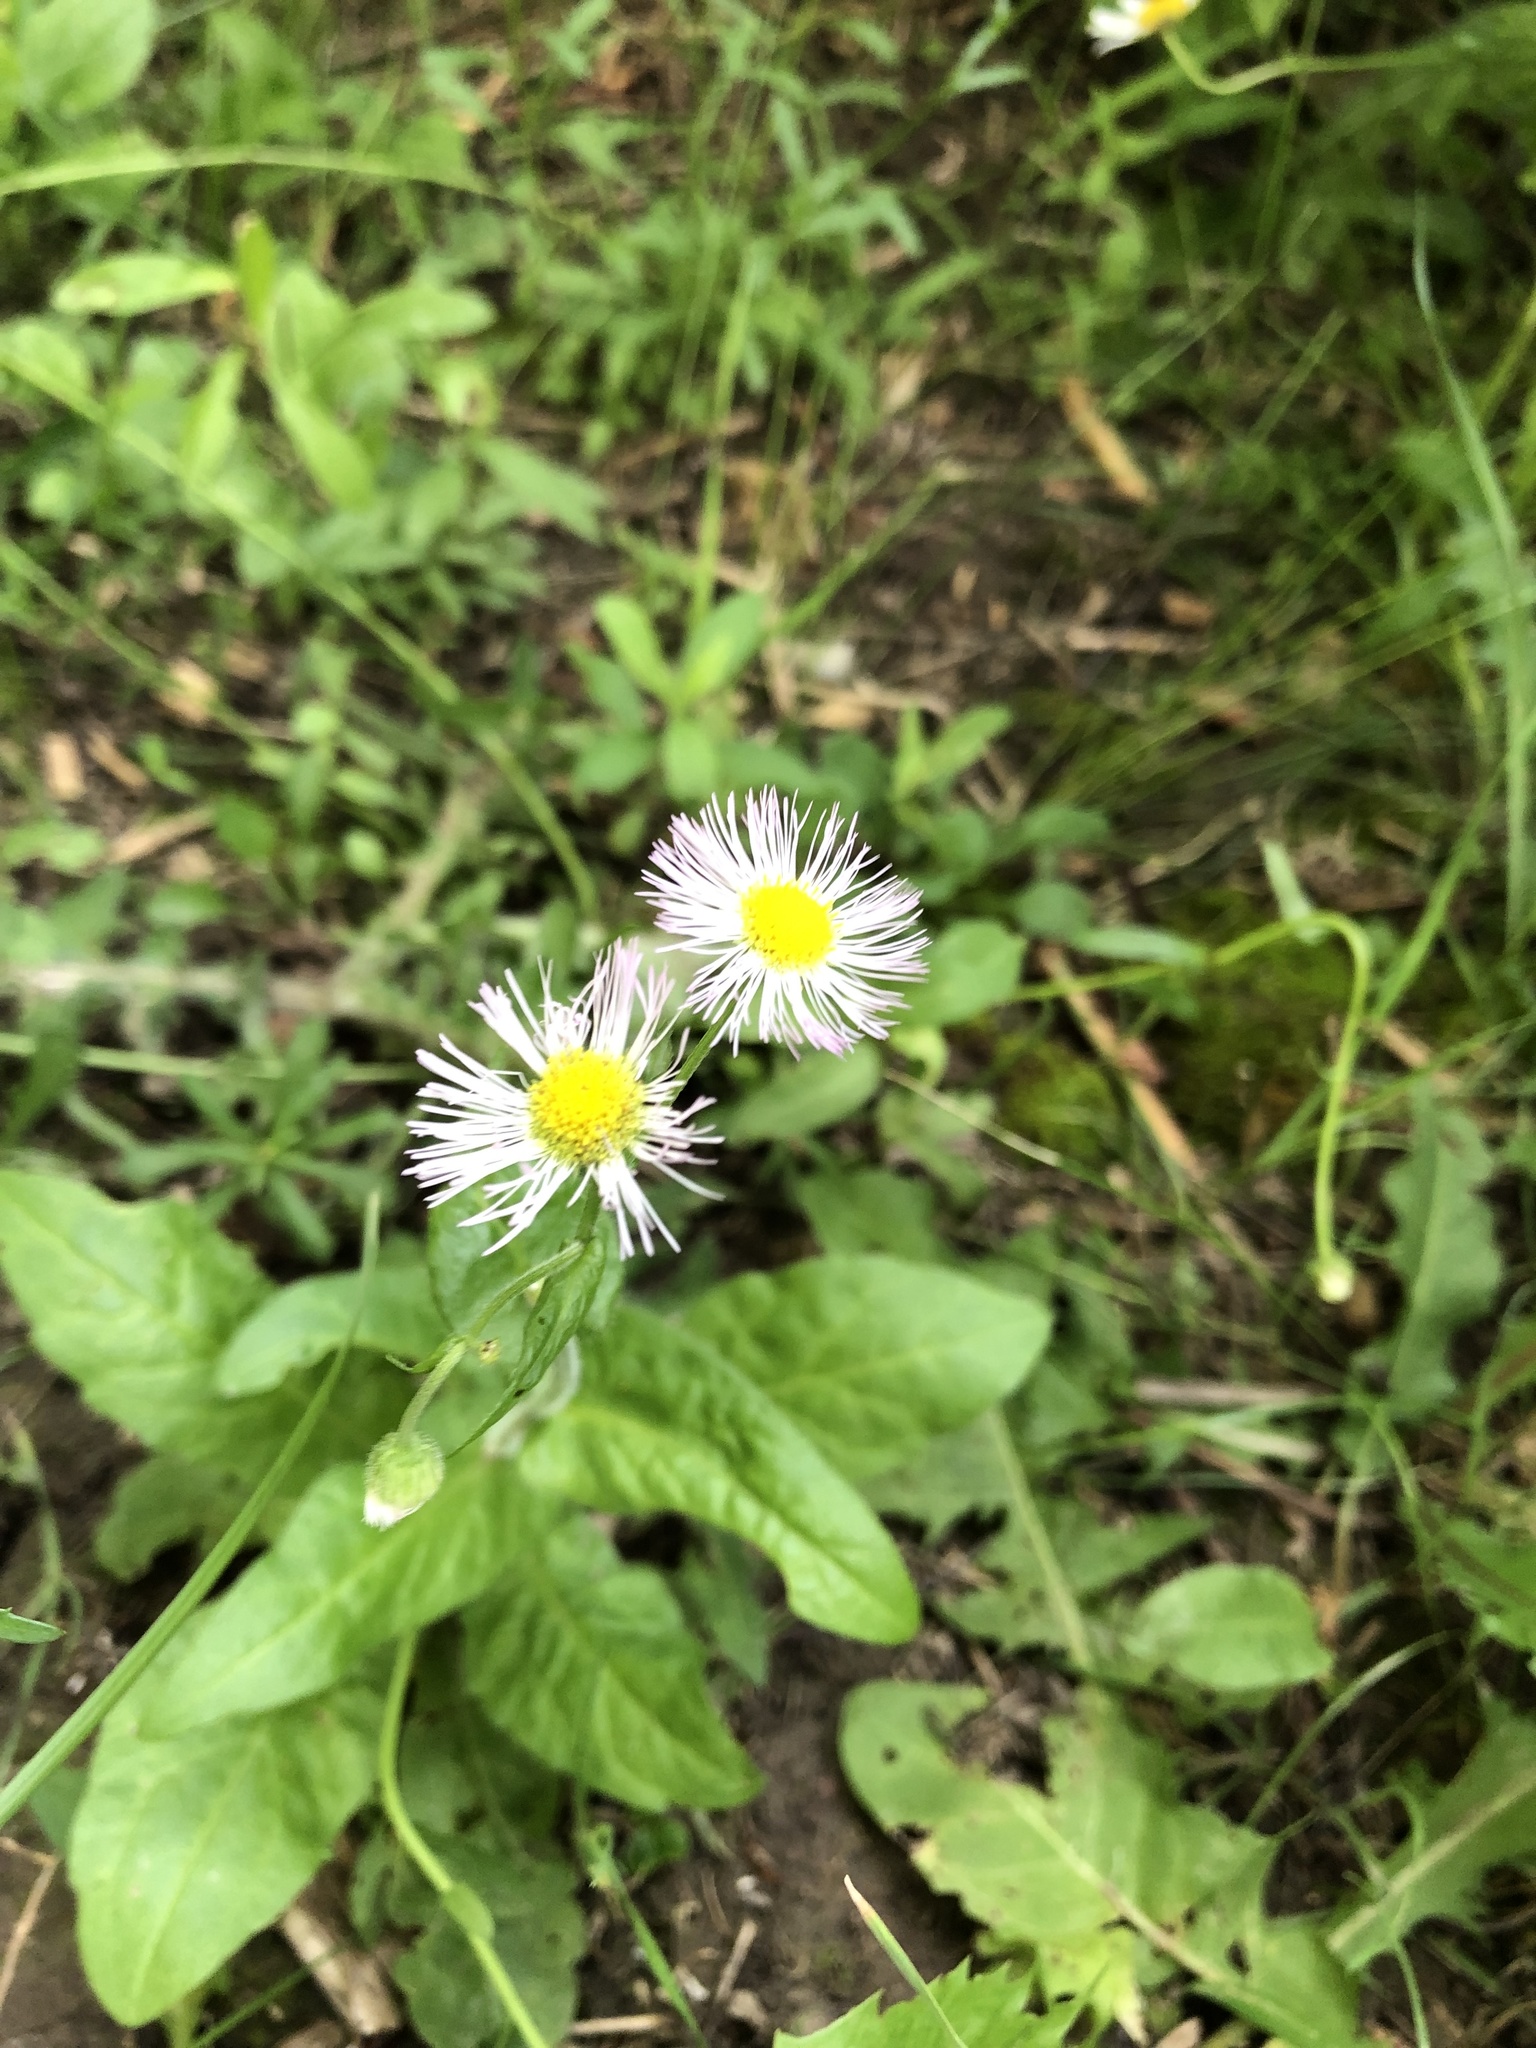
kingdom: Plantae
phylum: Tracheophyta
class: Magnoliopsida
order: Asterales
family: Asteraceae
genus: Erigeron
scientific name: Erigeron philadelphicus
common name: Robin's-plantain
